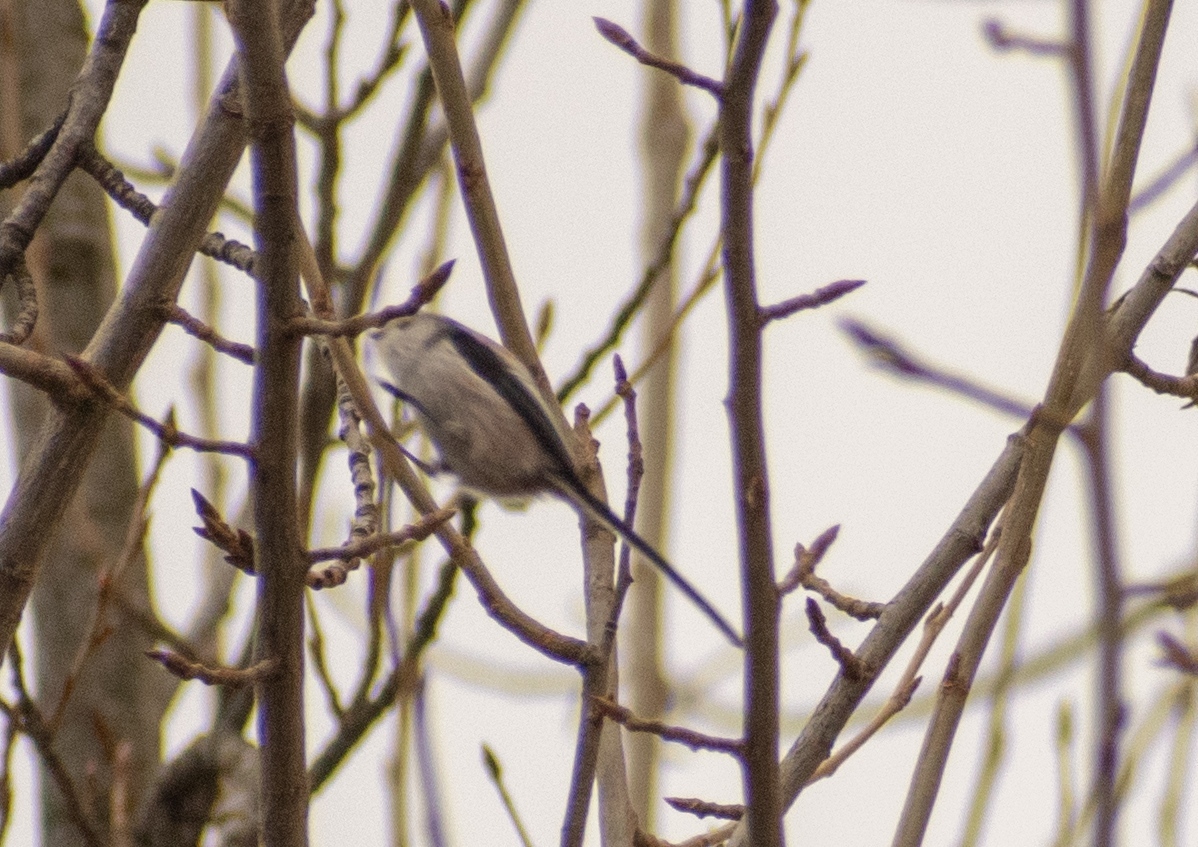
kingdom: Animalia
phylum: Chordata
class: Aves
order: Passeriformes
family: Aegithalidae
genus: Aegithalos
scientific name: Aegithalos caudatus
